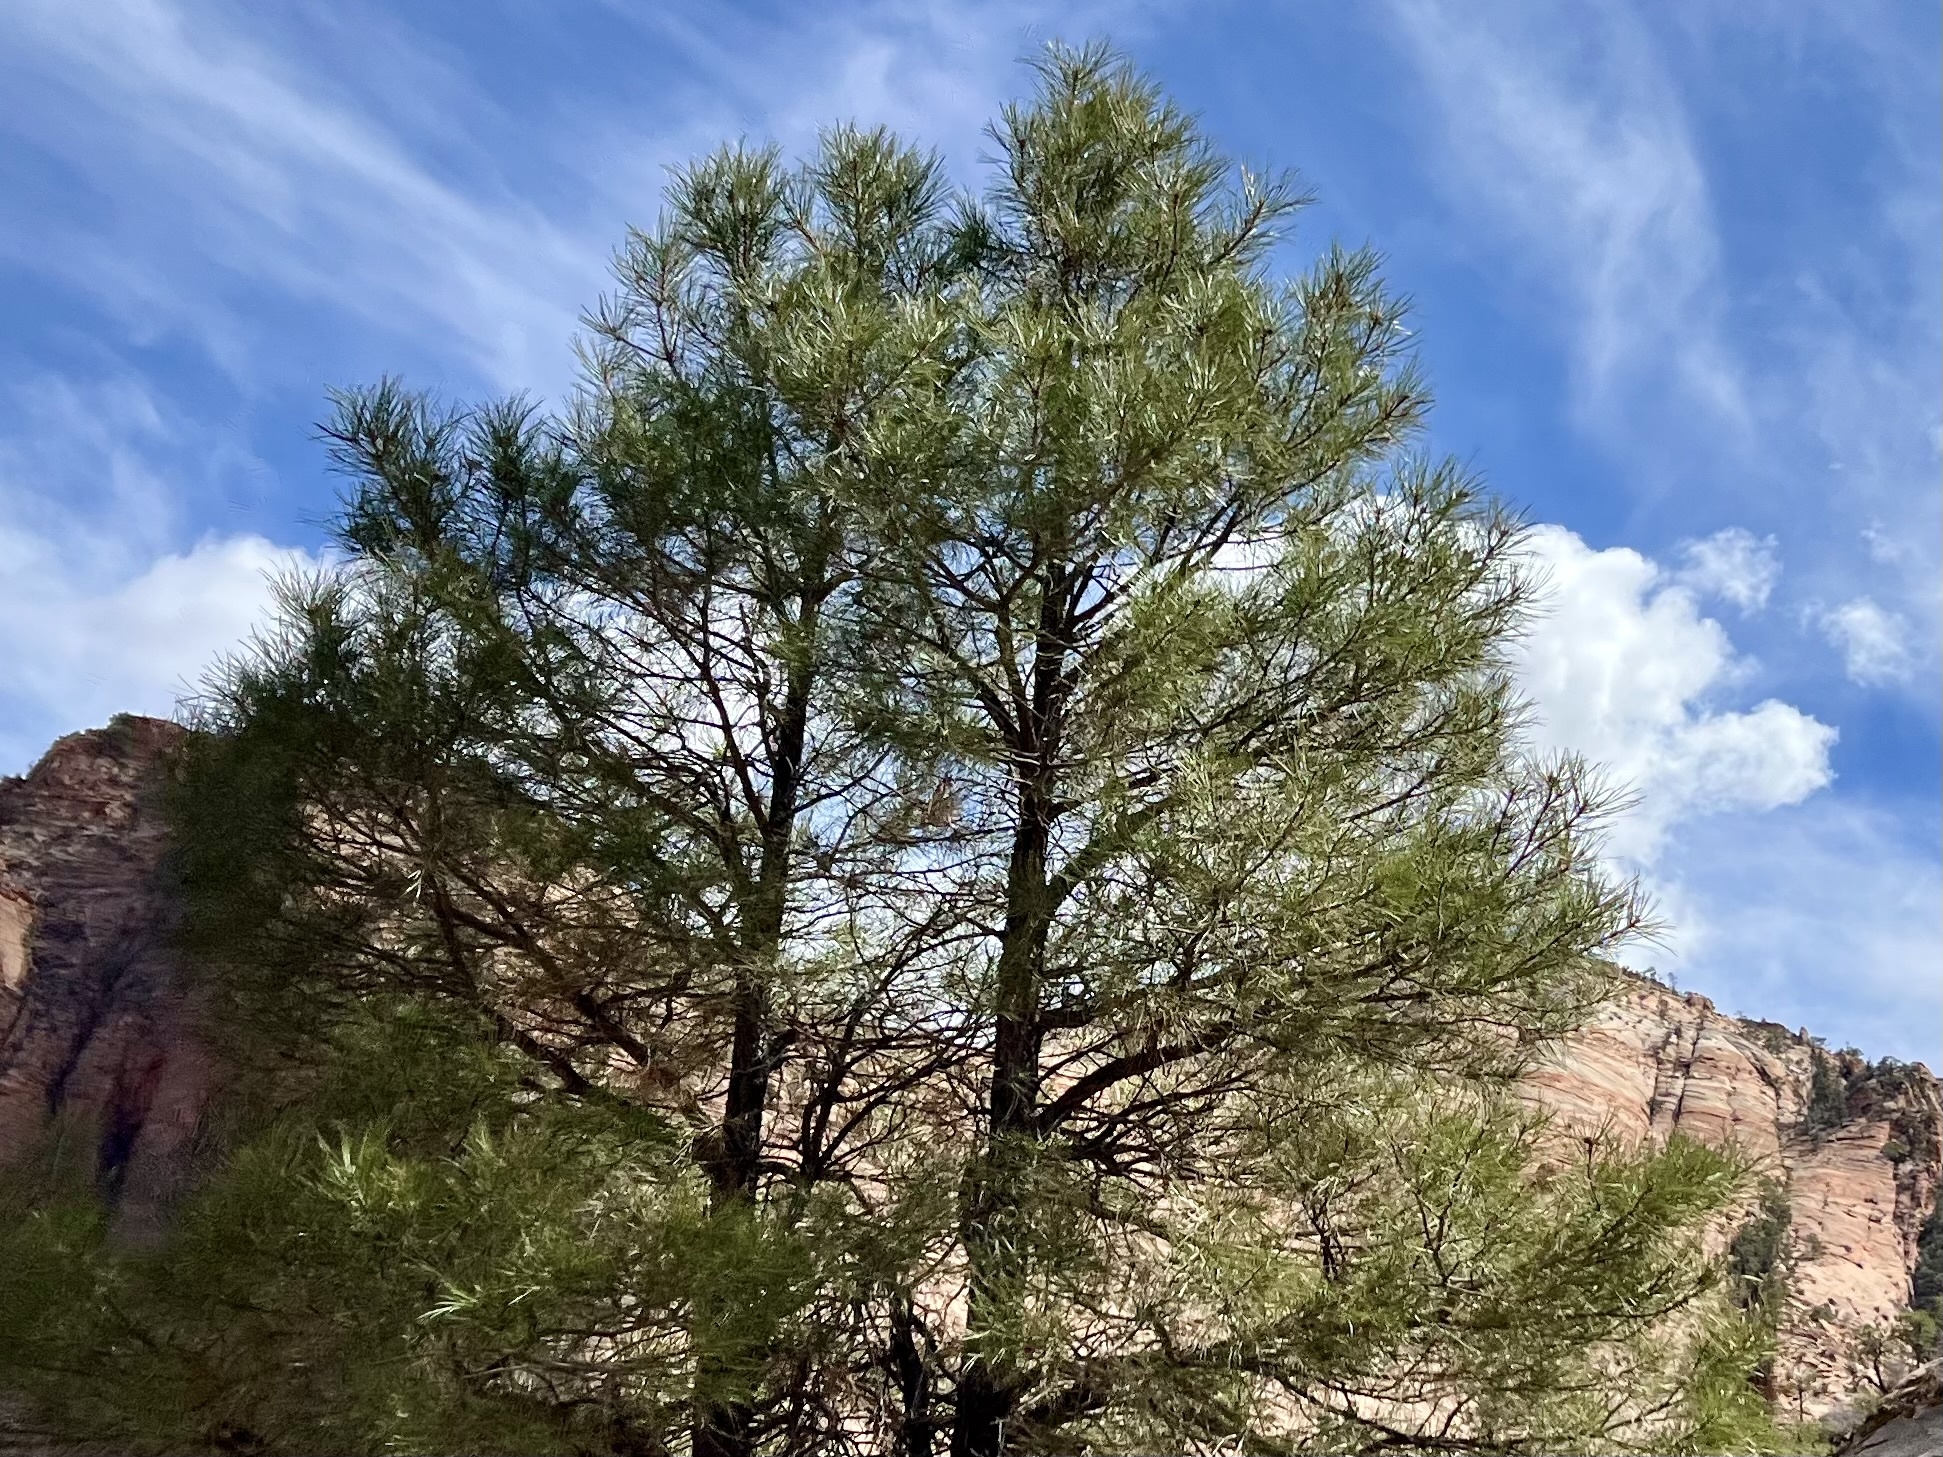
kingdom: Plantae
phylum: Tracheophyta
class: Pinopsida
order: Pinales
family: Pinaceae
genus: Pinus
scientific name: Pinus ponderosa
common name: Western yellow-pine
